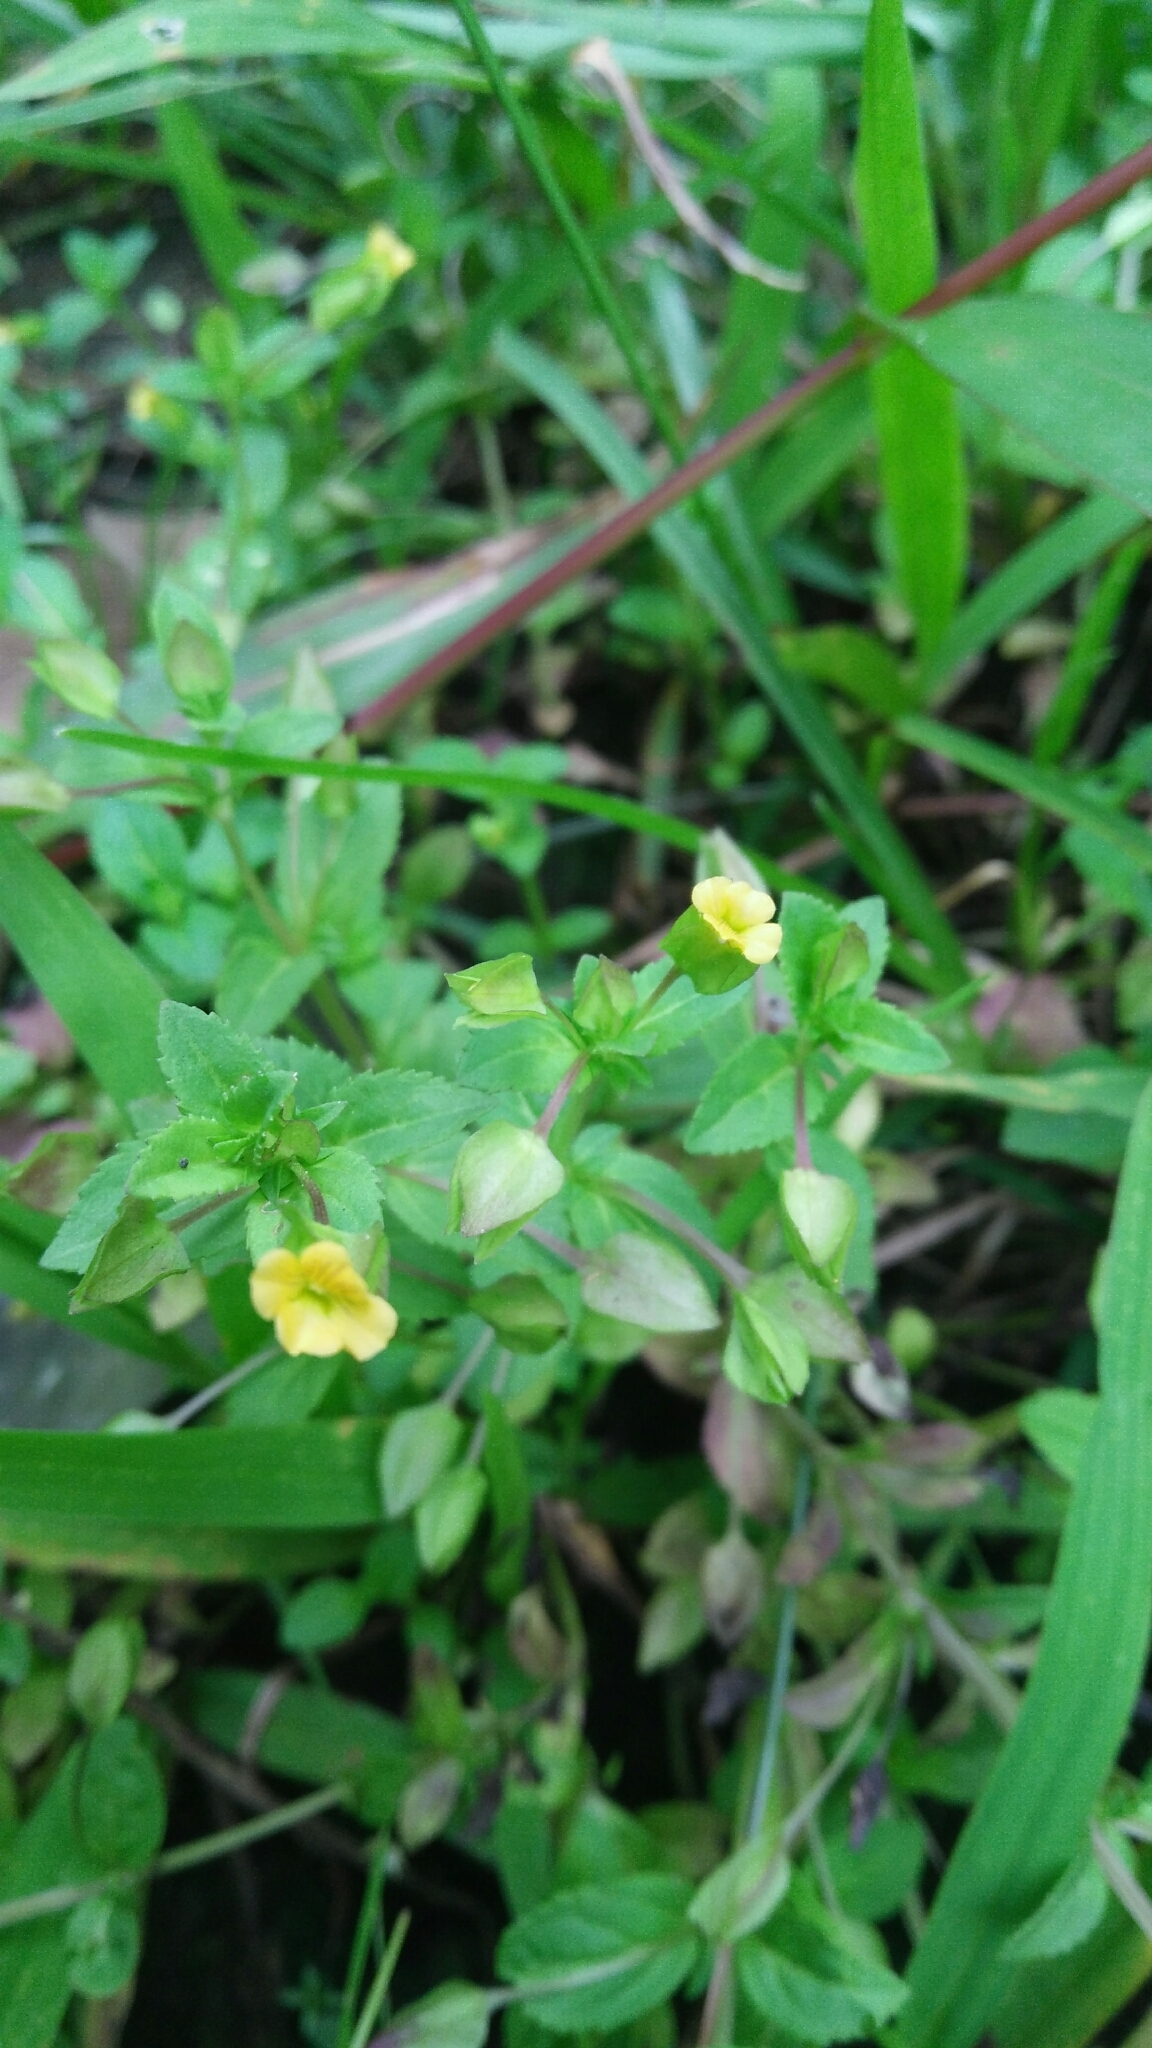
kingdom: Plantae
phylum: Tracheophyta
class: Magnoliopsida
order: Lamiales
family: Plantaginaceae
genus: Mecardonia
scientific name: Mecardonia procumbens
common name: Baby jump-up
